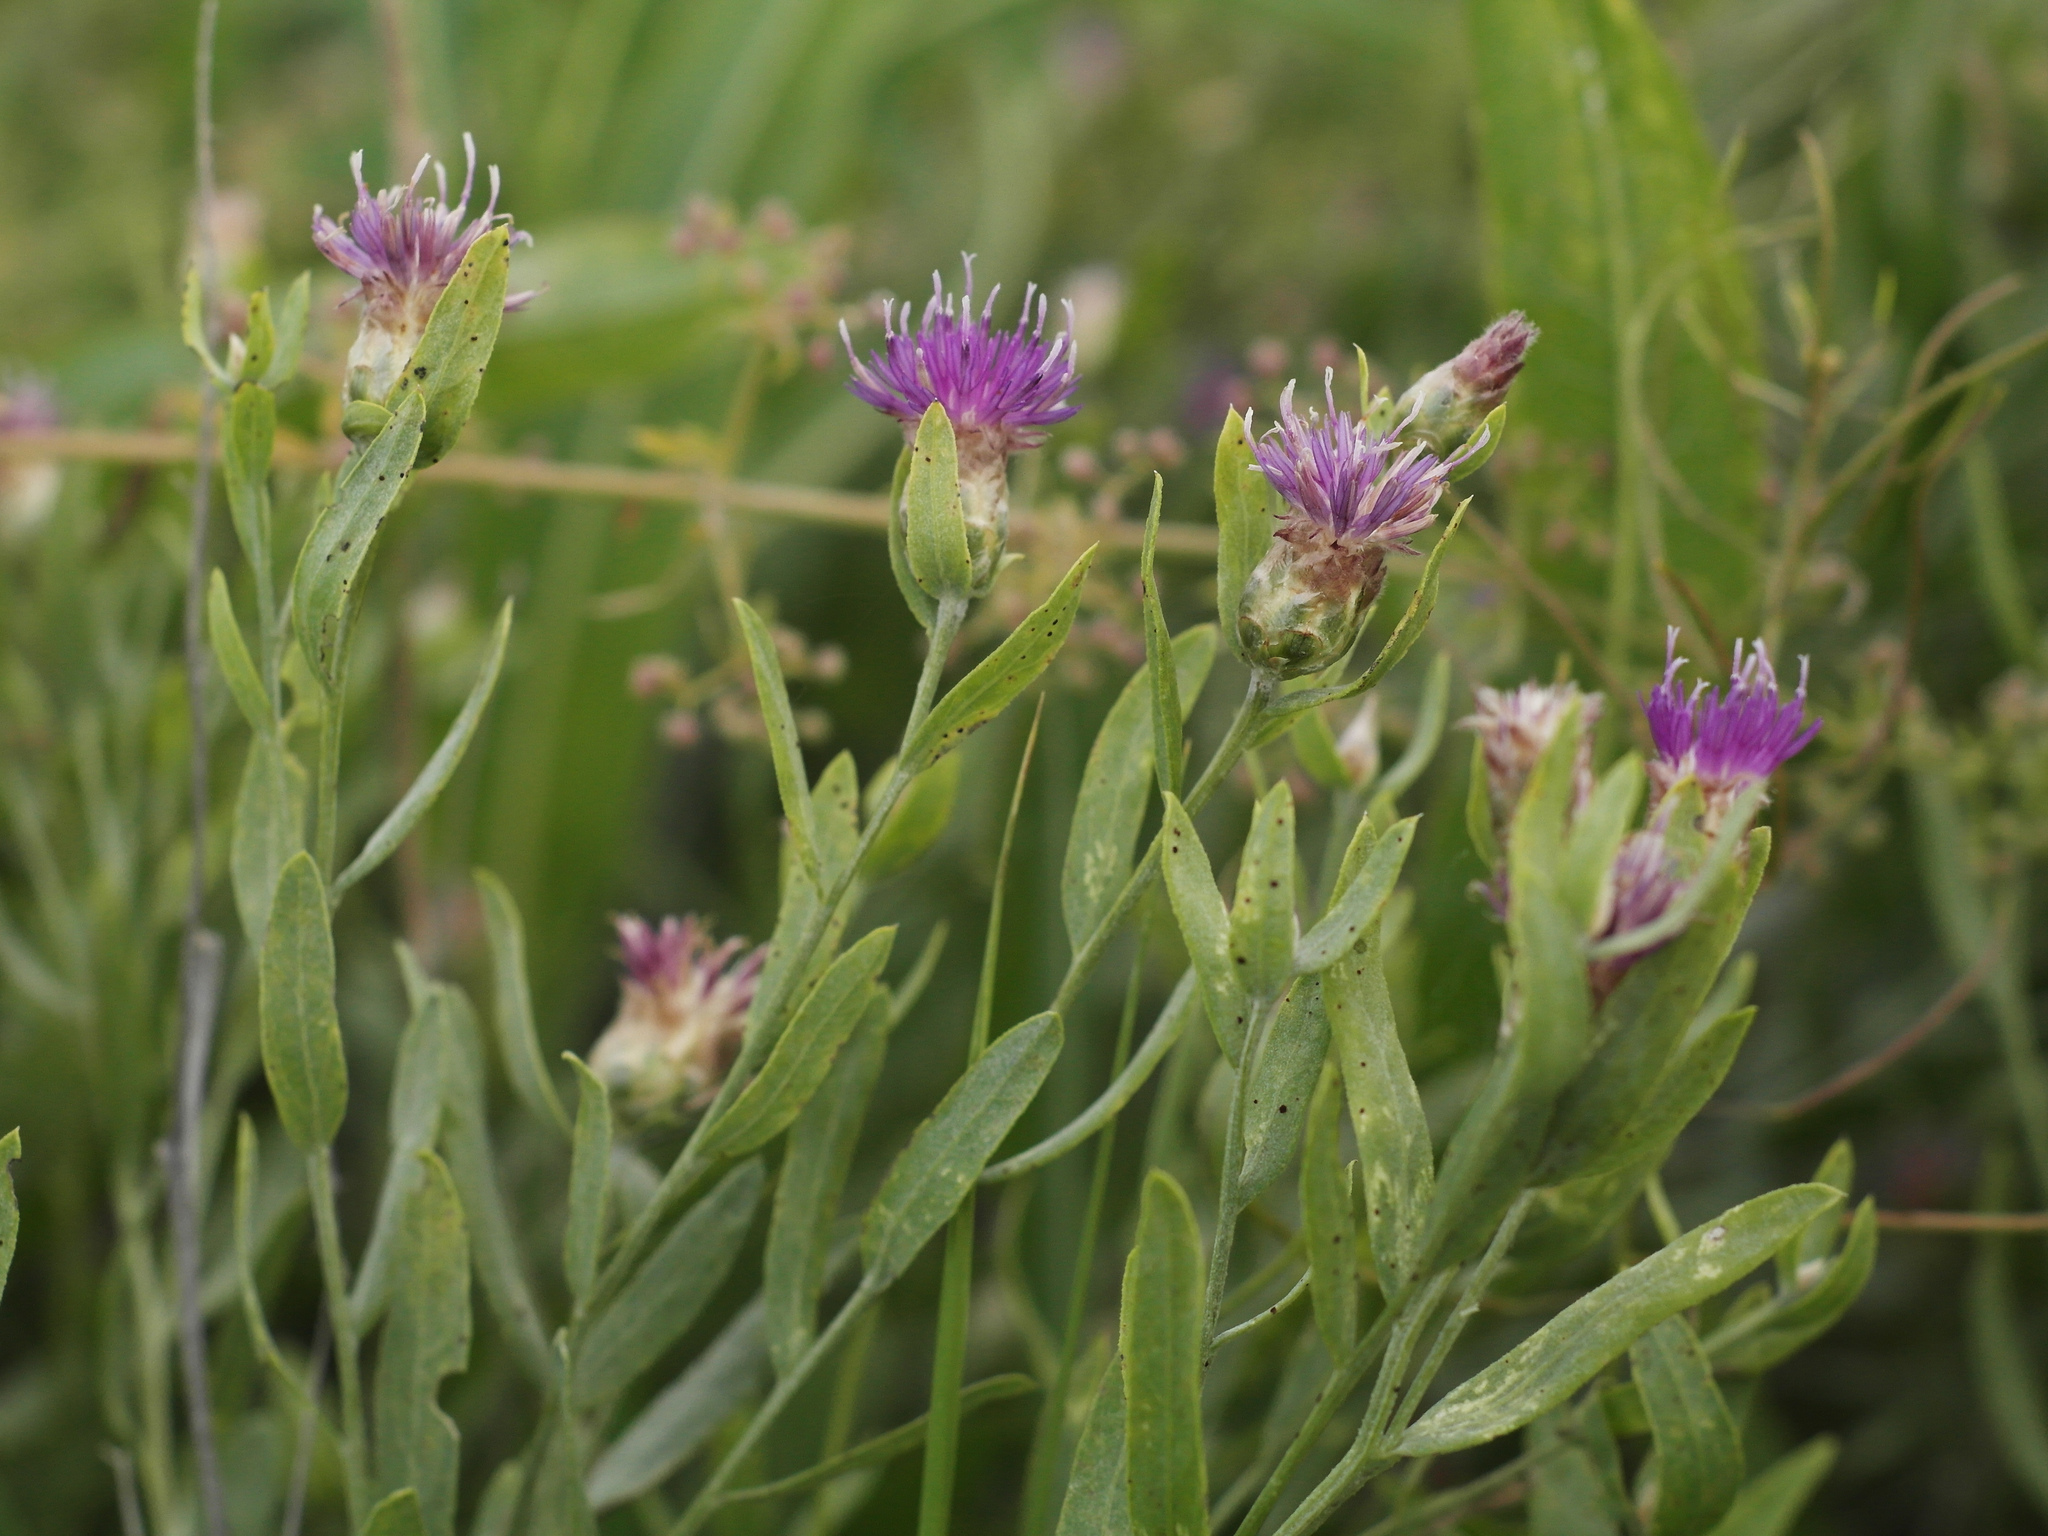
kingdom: Plantae
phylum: Tracheophyta
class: Magnoliopsida
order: Asterales
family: Asteraceae
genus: Leuzea
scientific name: Leuzea repens
